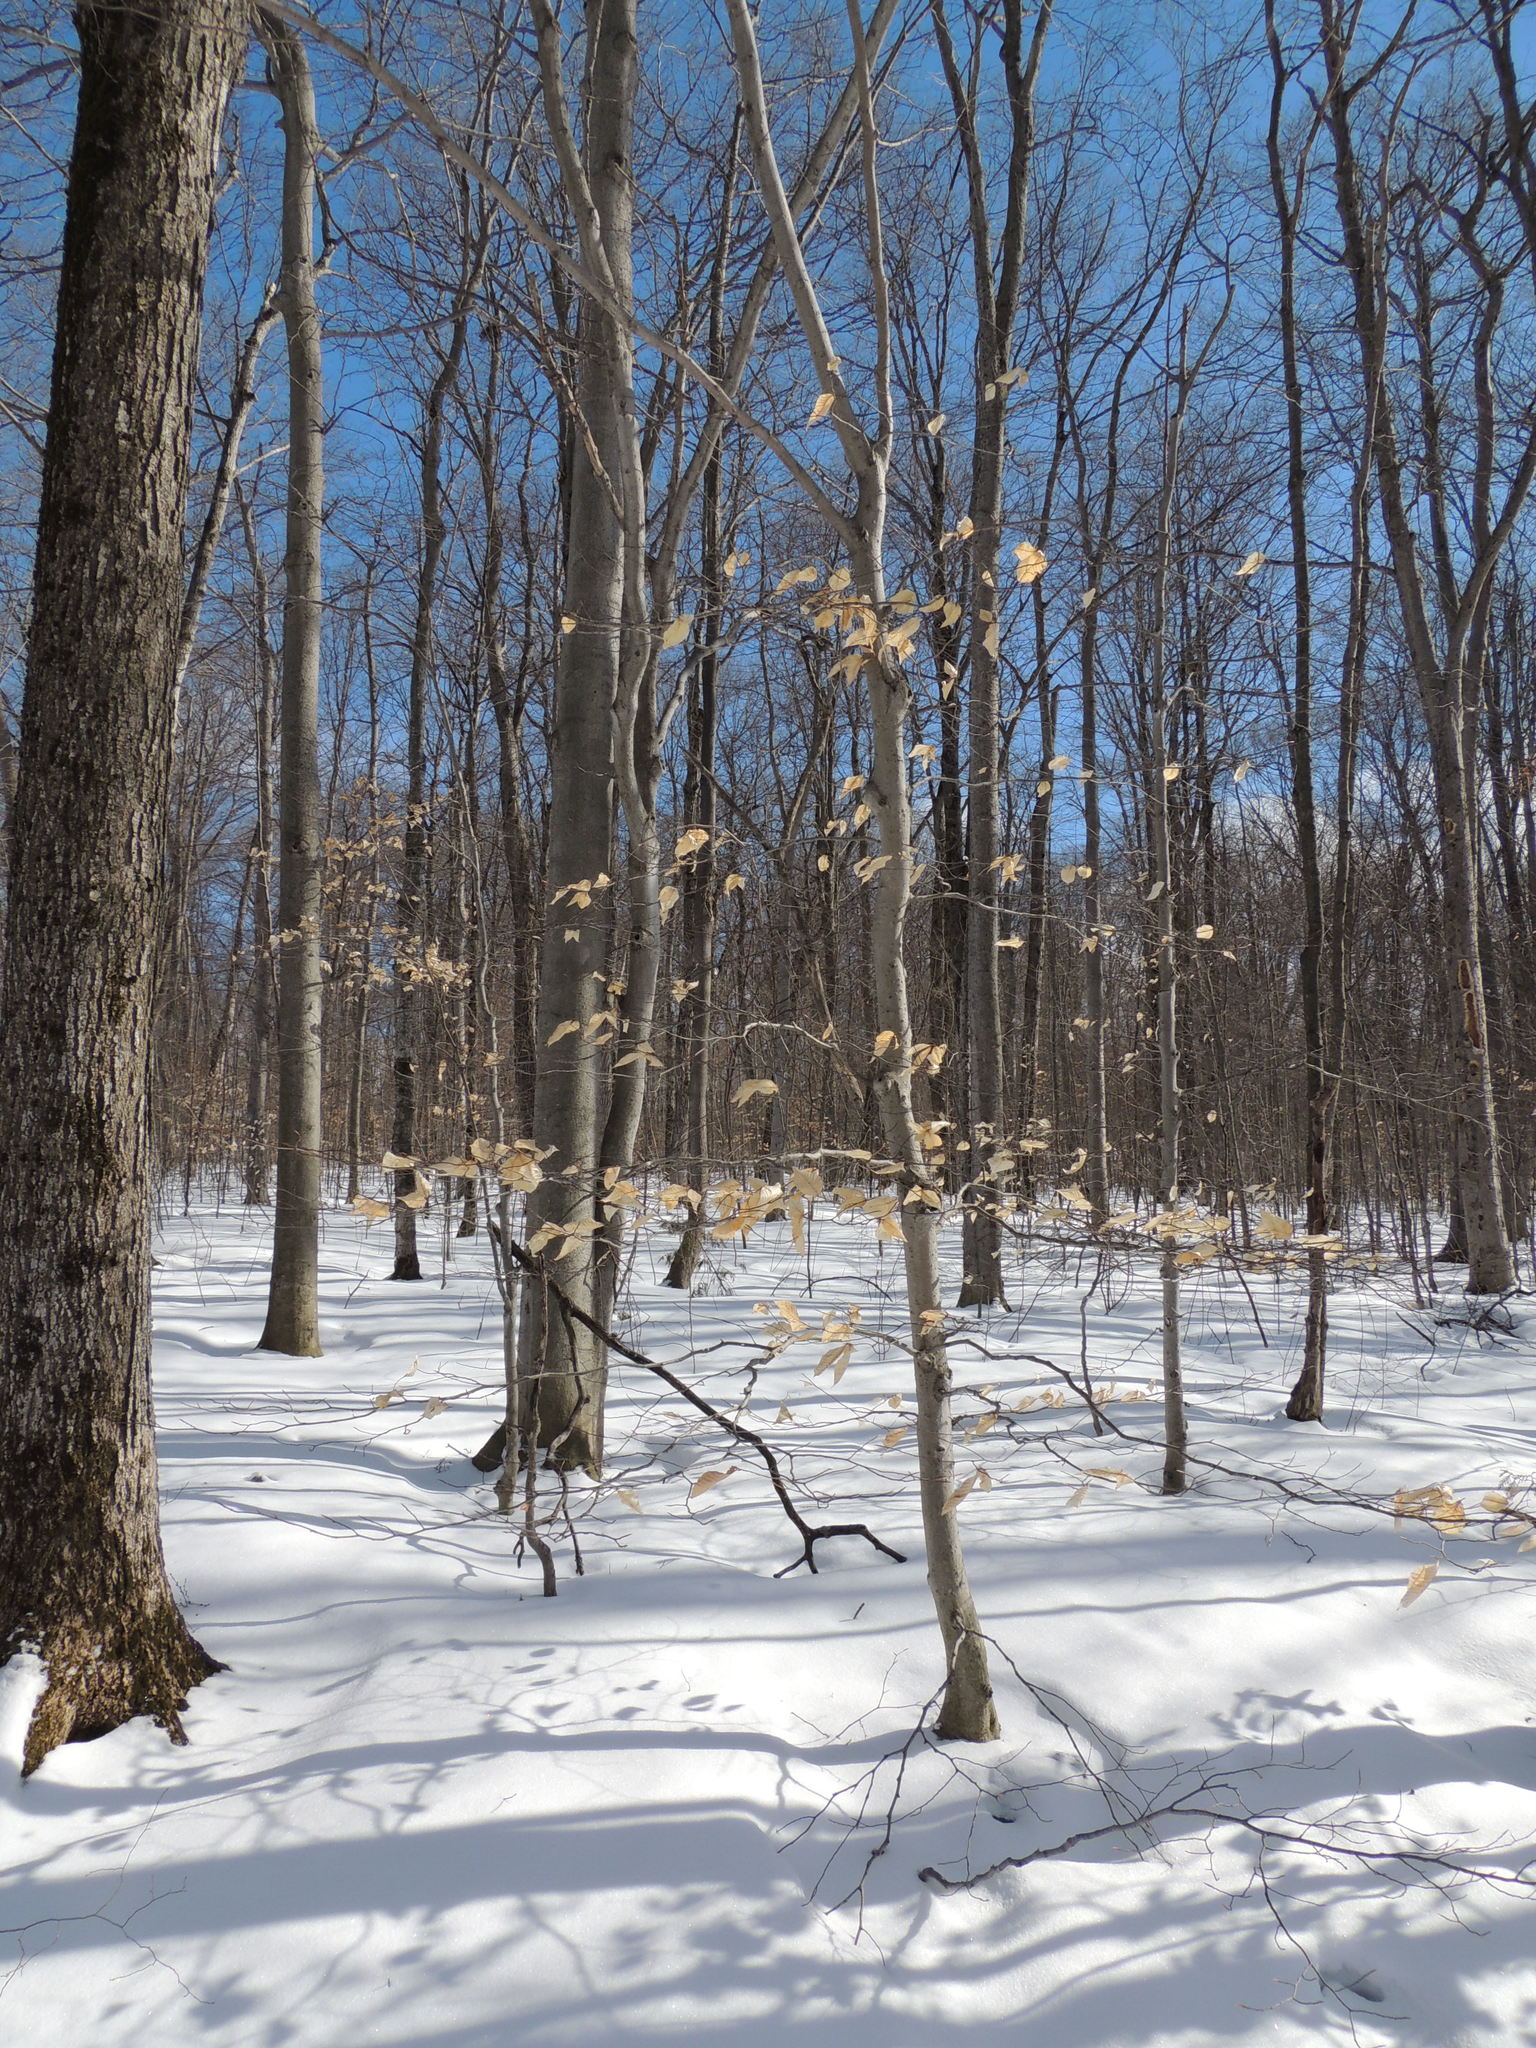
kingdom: Plantae
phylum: Tracheophyta
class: Magnoliopsida
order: Fagales
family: Fagaceae
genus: Fagus
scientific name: Fagus grandifolia
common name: American beech
